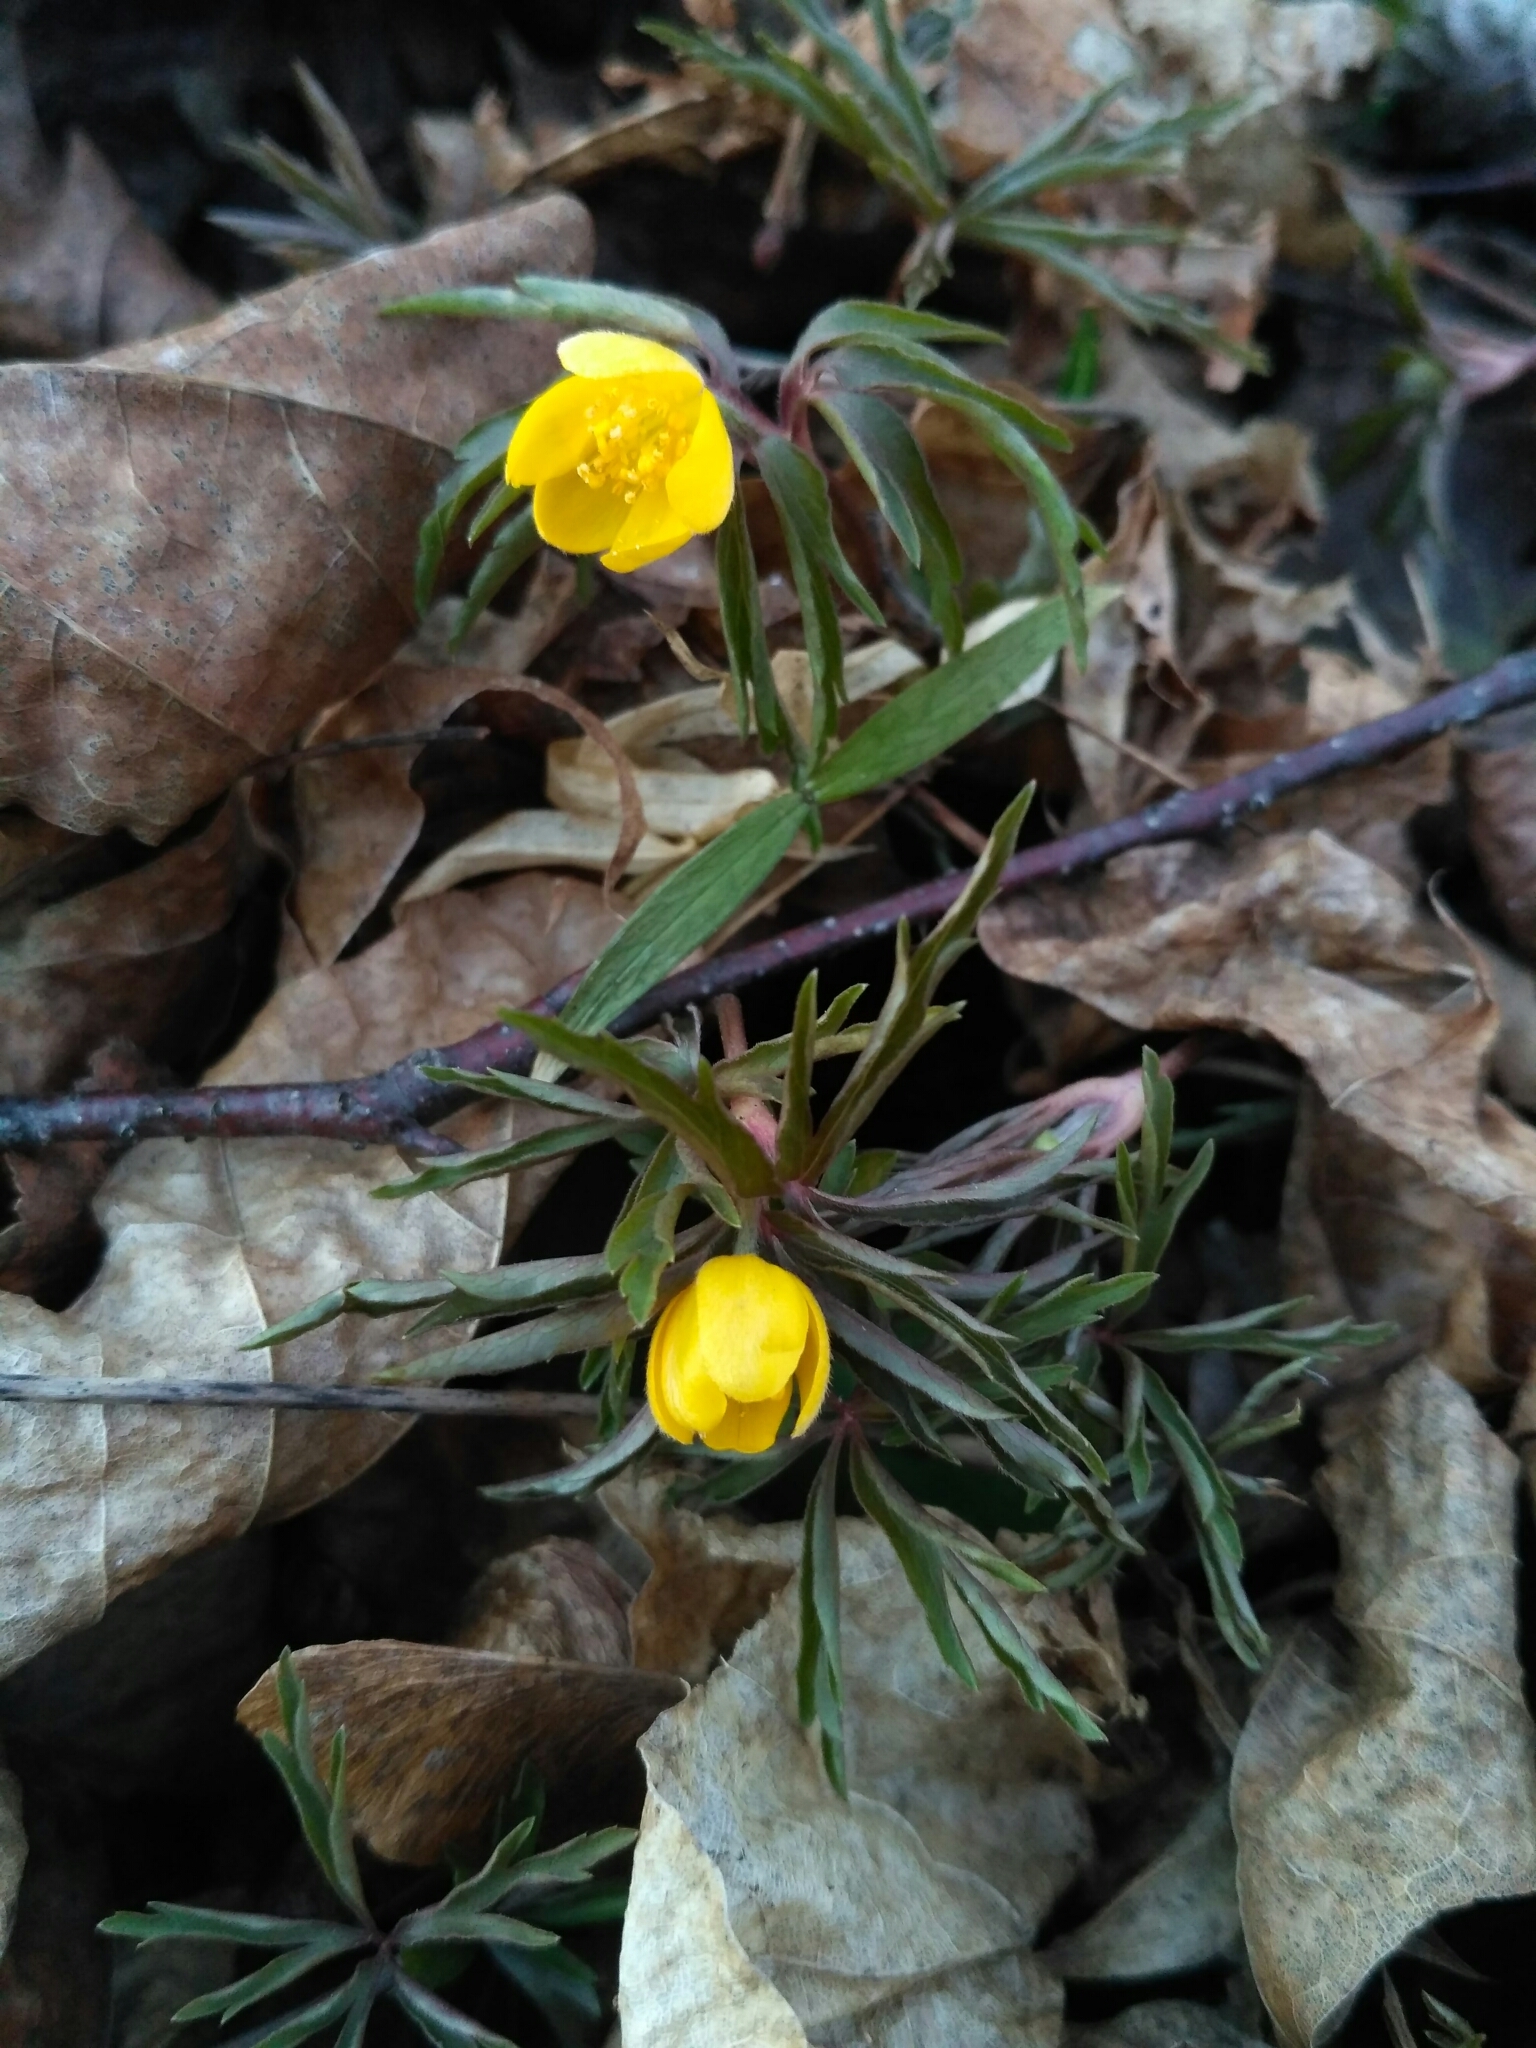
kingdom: Plantae
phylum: Tracheophyta
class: Magnoliopsida
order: Ranunculales
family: Ranunculaceae
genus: Anemone
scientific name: Anemone ranunculoides
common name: Yellow anemone
